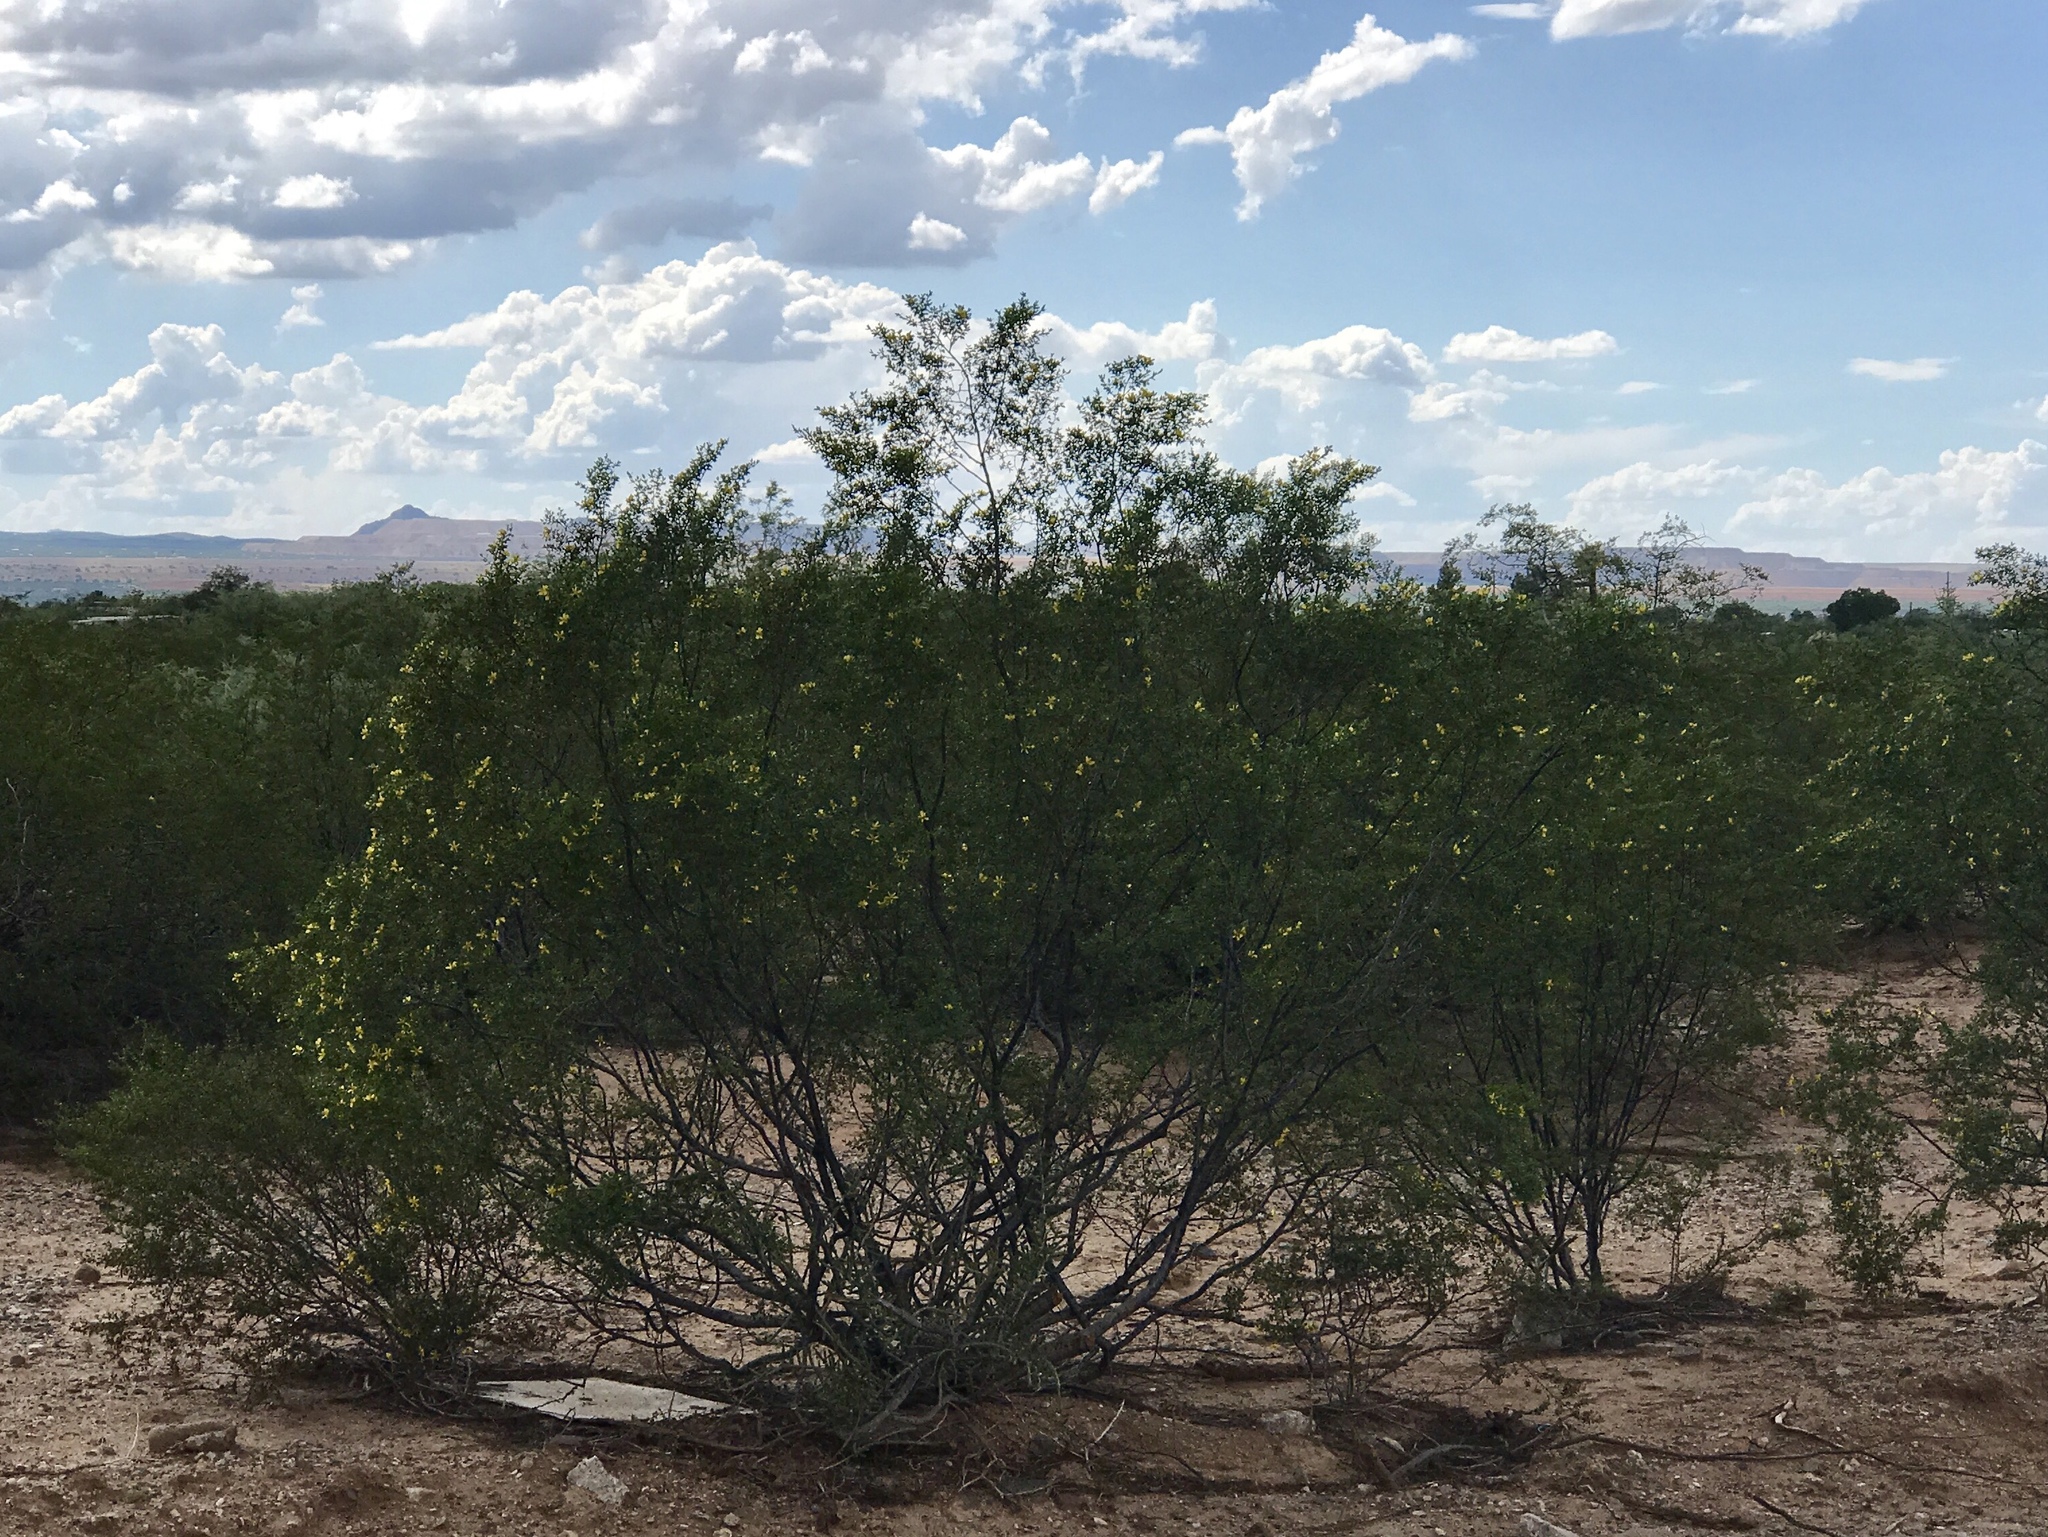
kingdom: Plantae
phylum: Tracheophyta
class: Magnoliopsida
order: Zygophyllales
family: Zygophyllaceae
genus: Larrea
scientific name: Larrea tridentata
